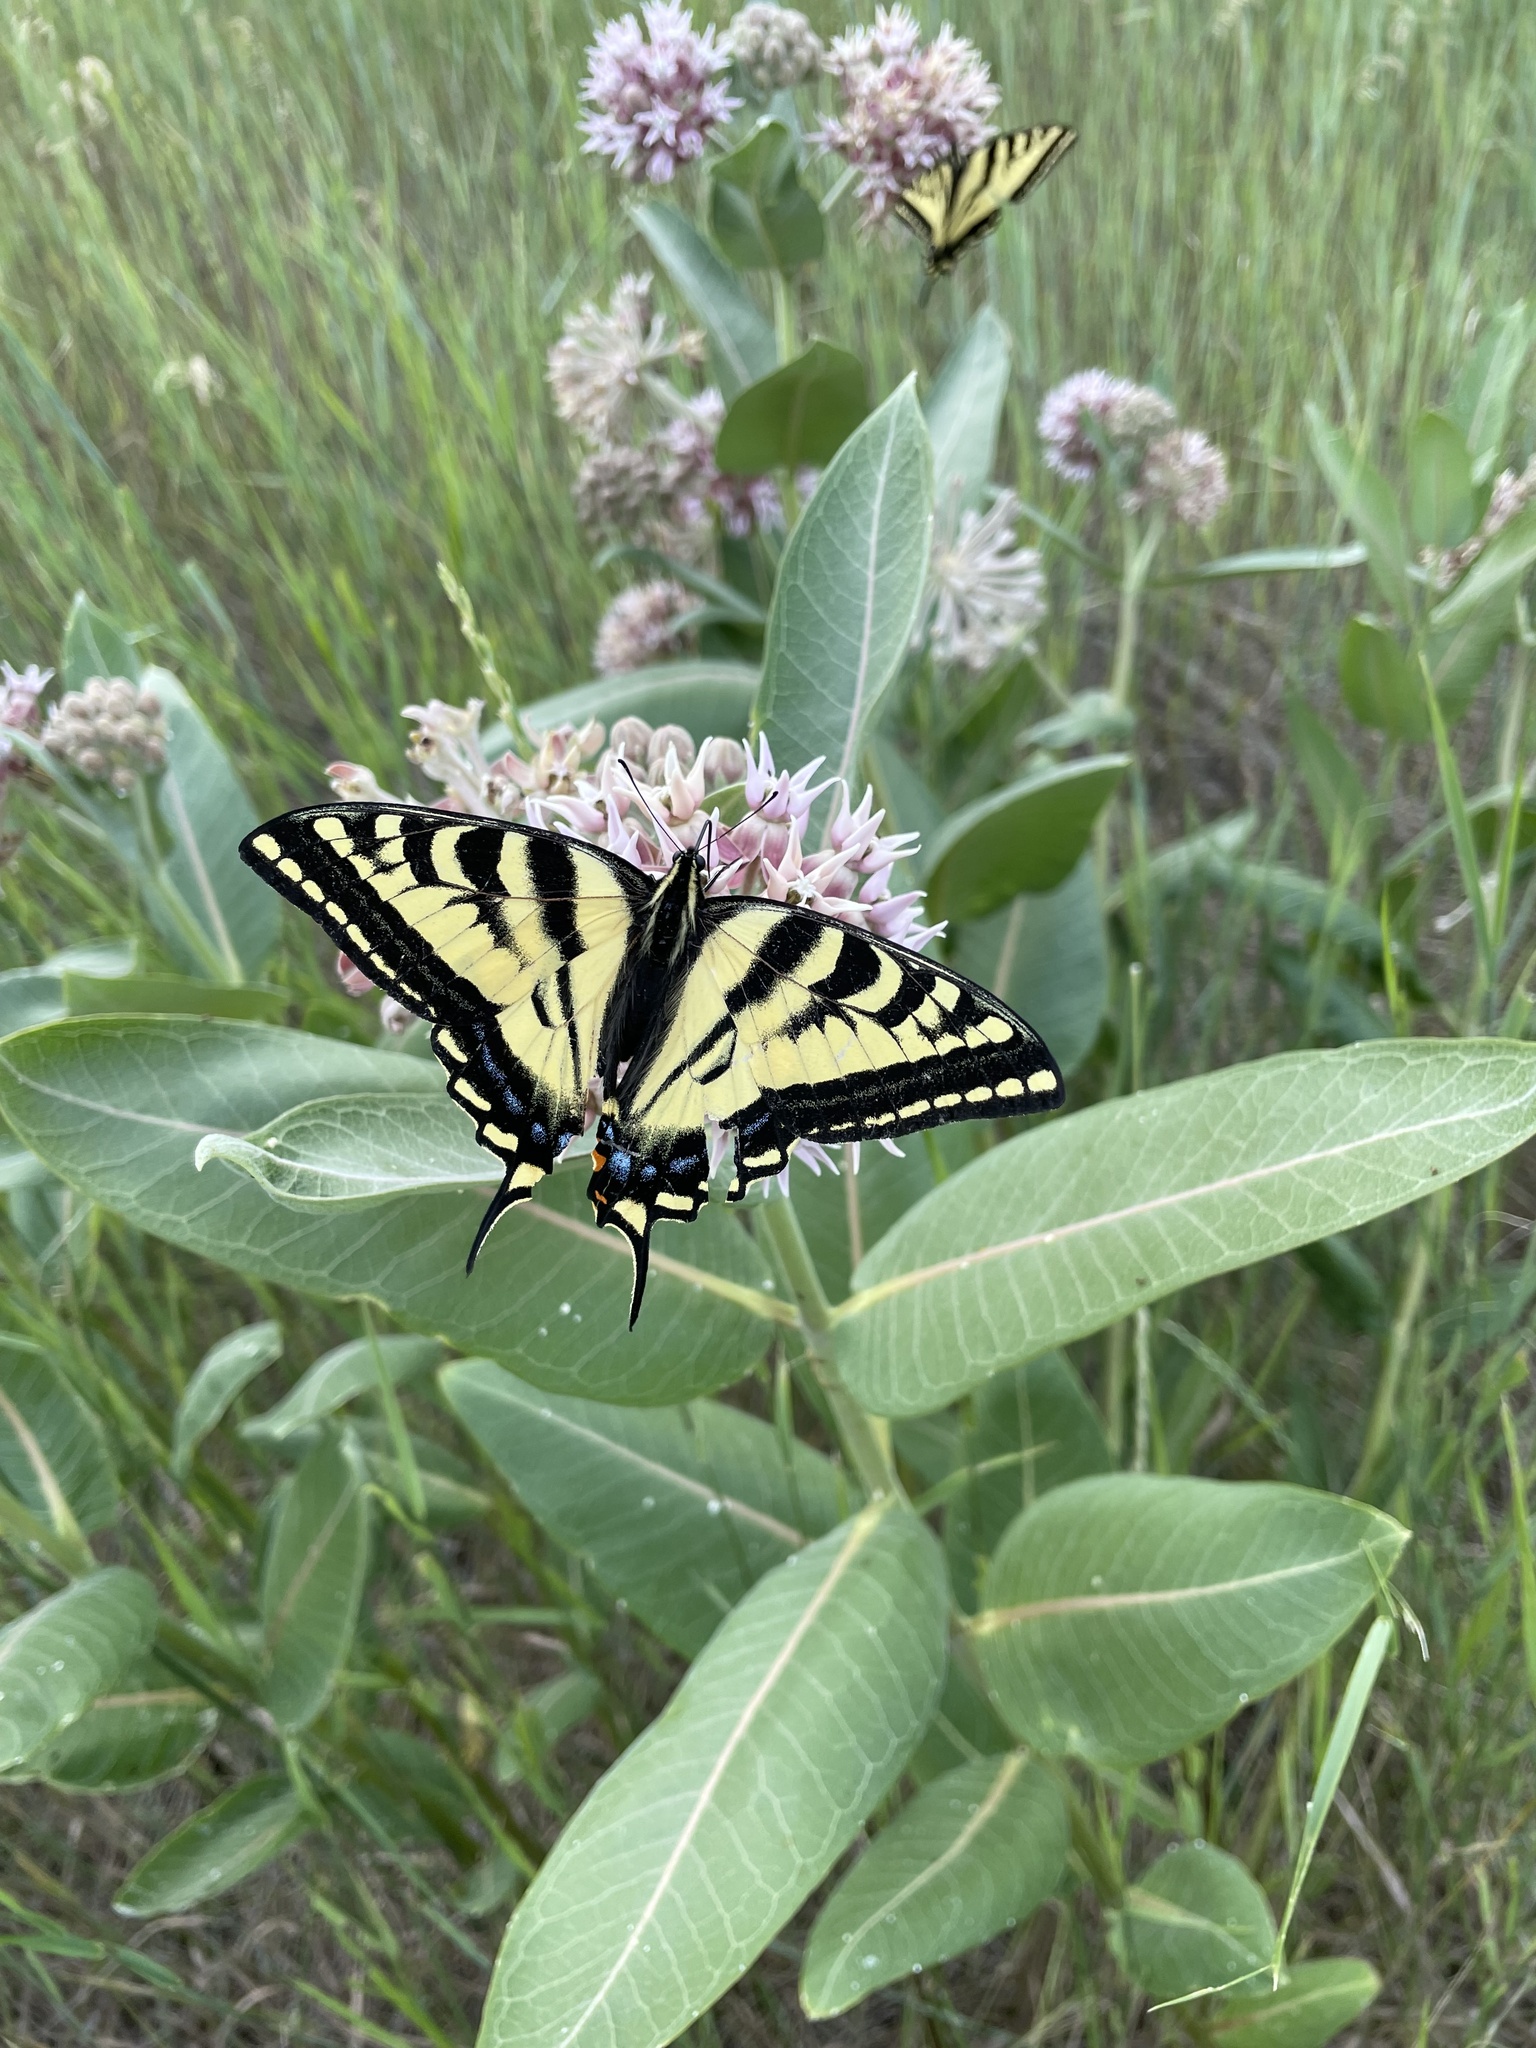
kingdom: Animalia
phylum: Arthropoda
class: Insecta
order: Lepidoptera
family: Papilionidae
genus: Papilio
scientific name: Papilio rutulus
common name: Western tiger swallowtail
